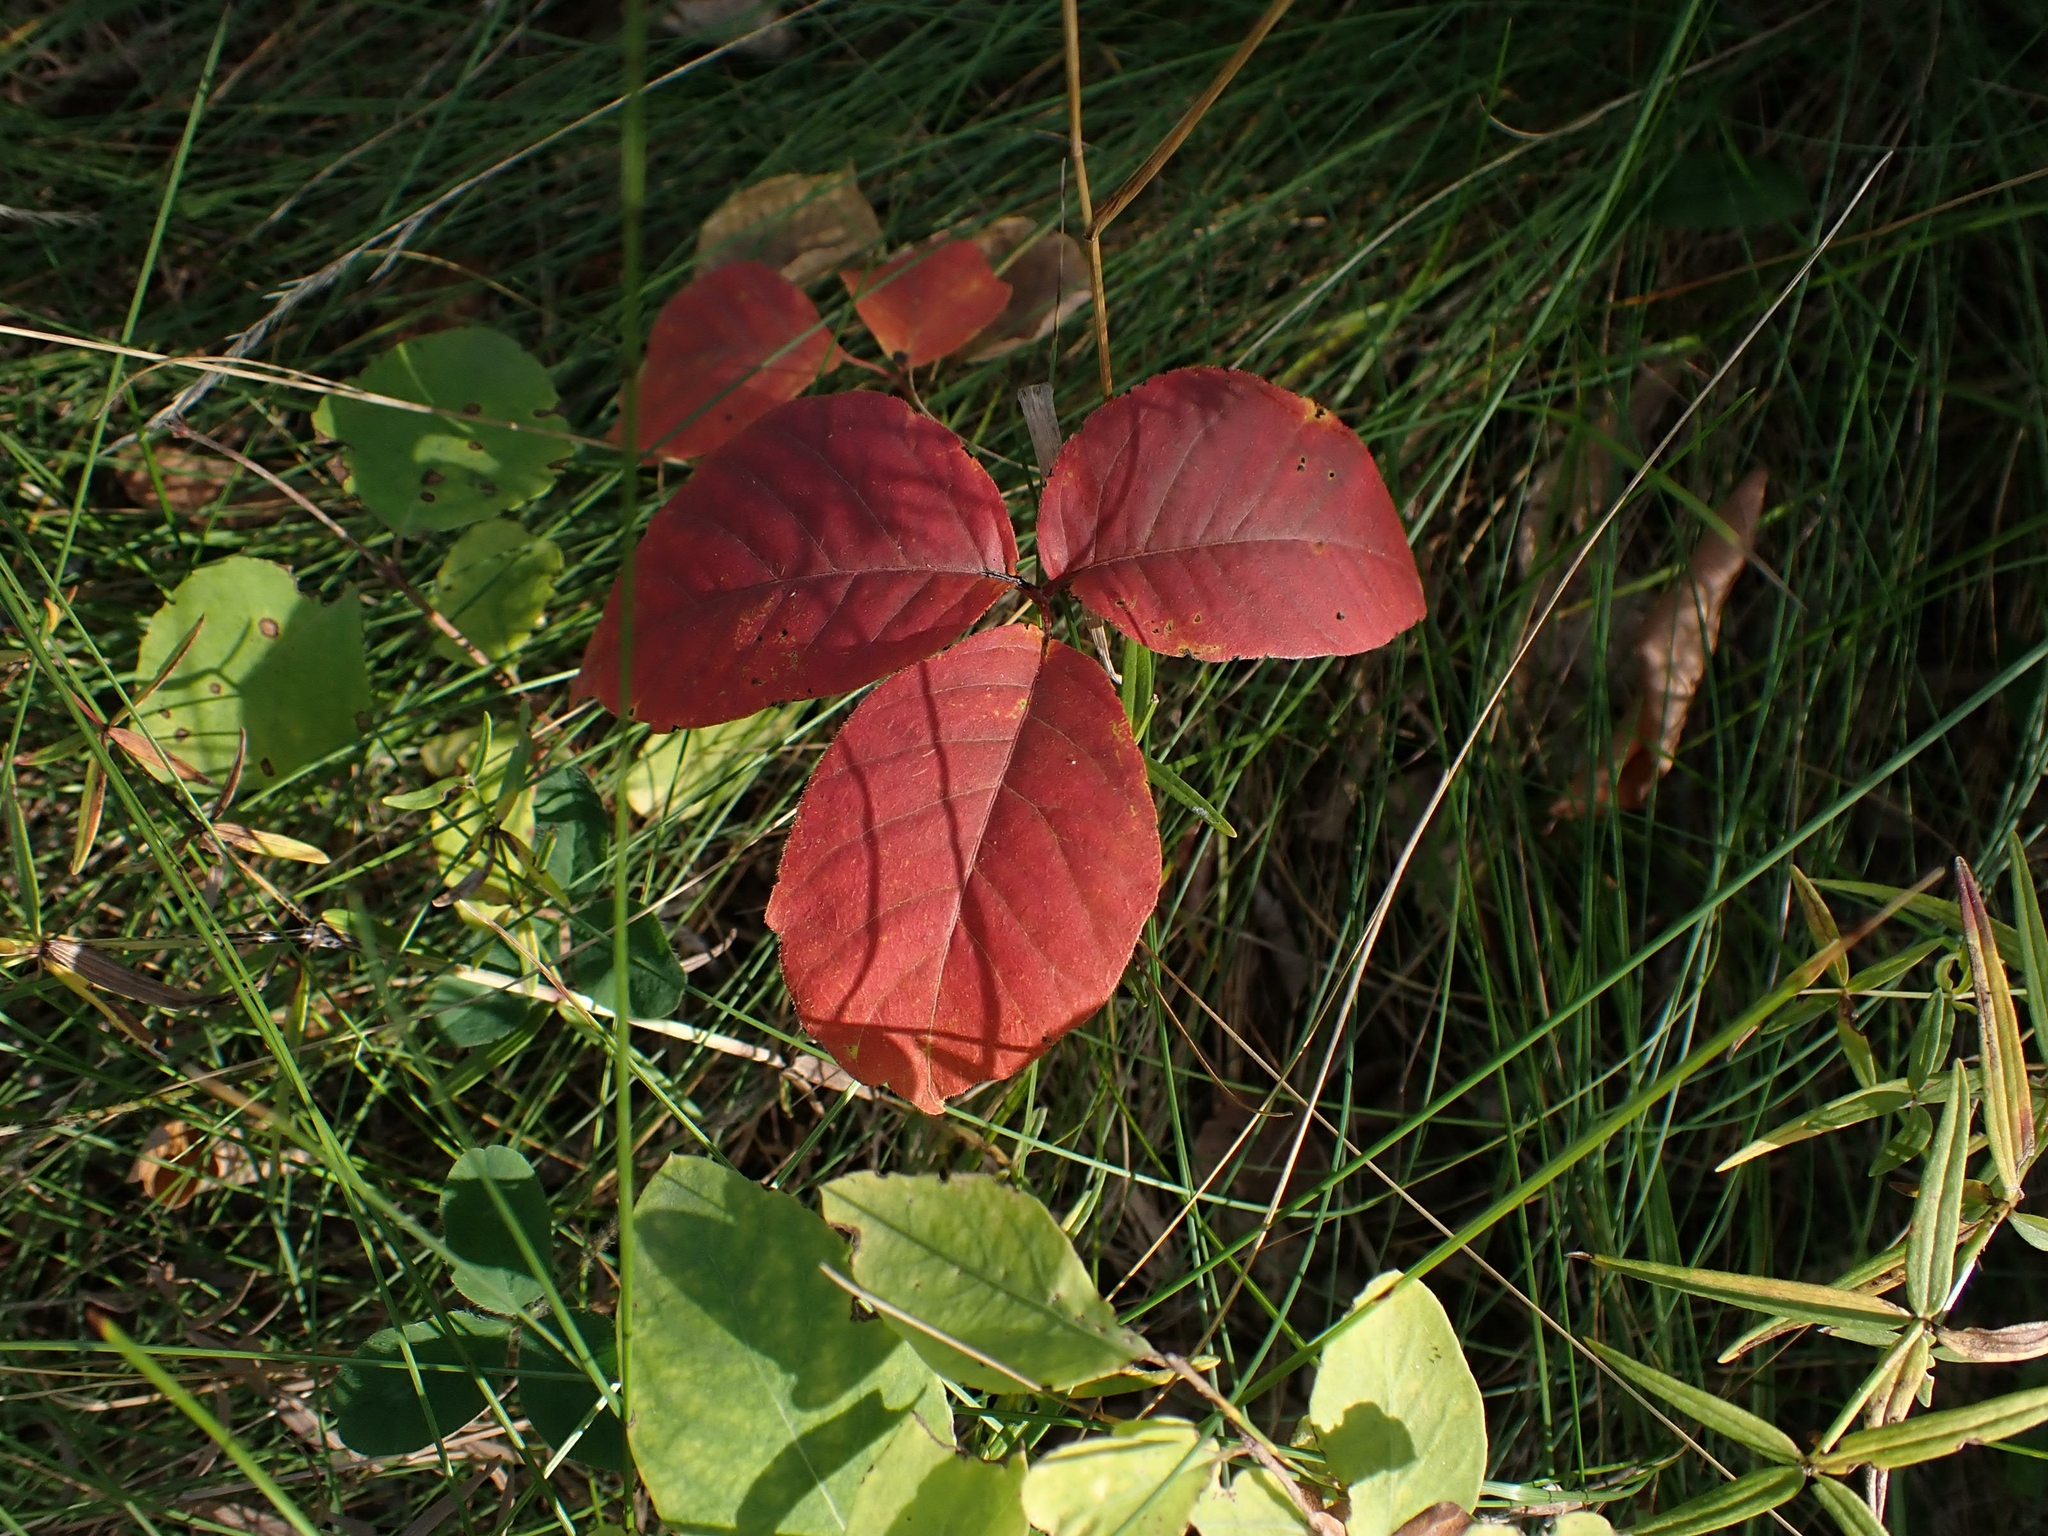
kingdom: Plantae
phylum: Tracheophyta
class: Magnoliopsida
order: Sapindales
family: Anacardiaceae
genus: Toxicodendron
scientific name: Toxicodendron rydbergii
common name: Rydberg's poison-ivy
